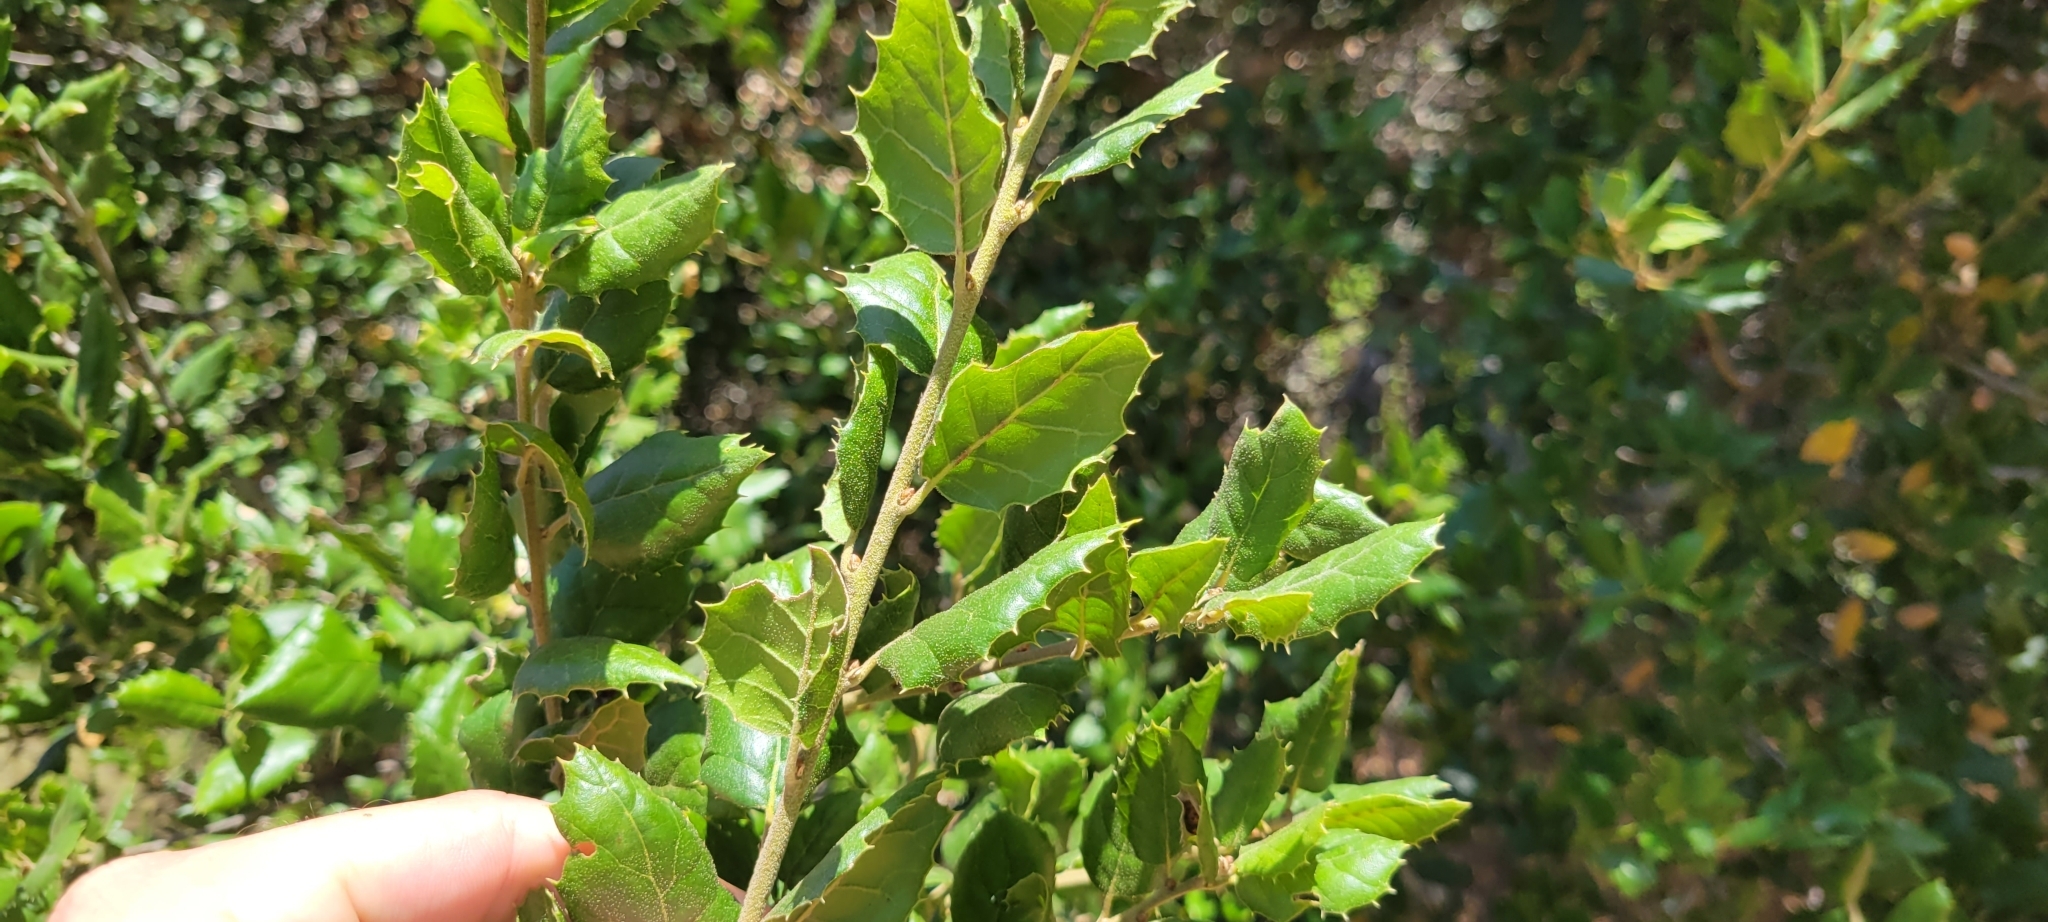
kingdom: Plantae
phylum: Tracheophyta
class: Magnoliopsida
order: Fagales
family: Fagaceae
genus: Quercus
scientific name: Quercus agrifolia
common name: California live oak
